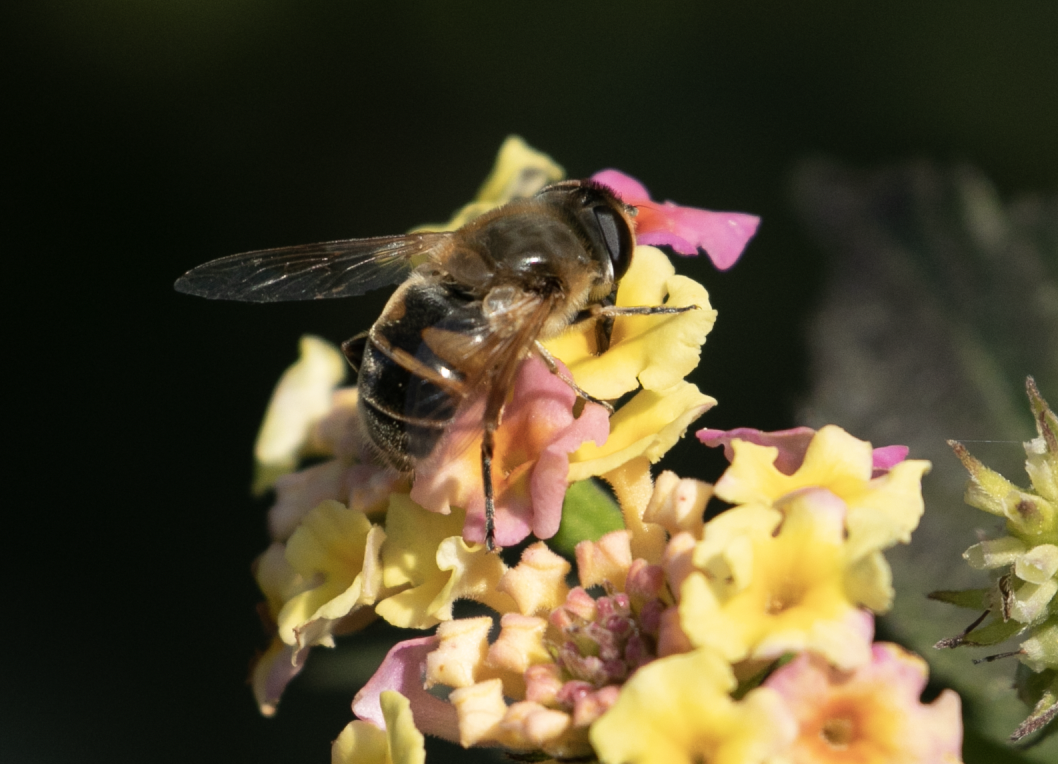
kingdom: Animalia
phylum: Arthropoda
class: Insecta
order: Diptera
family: Syrphidae
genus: Eristalis
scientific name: Eristalis tenax
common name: Drone fly
